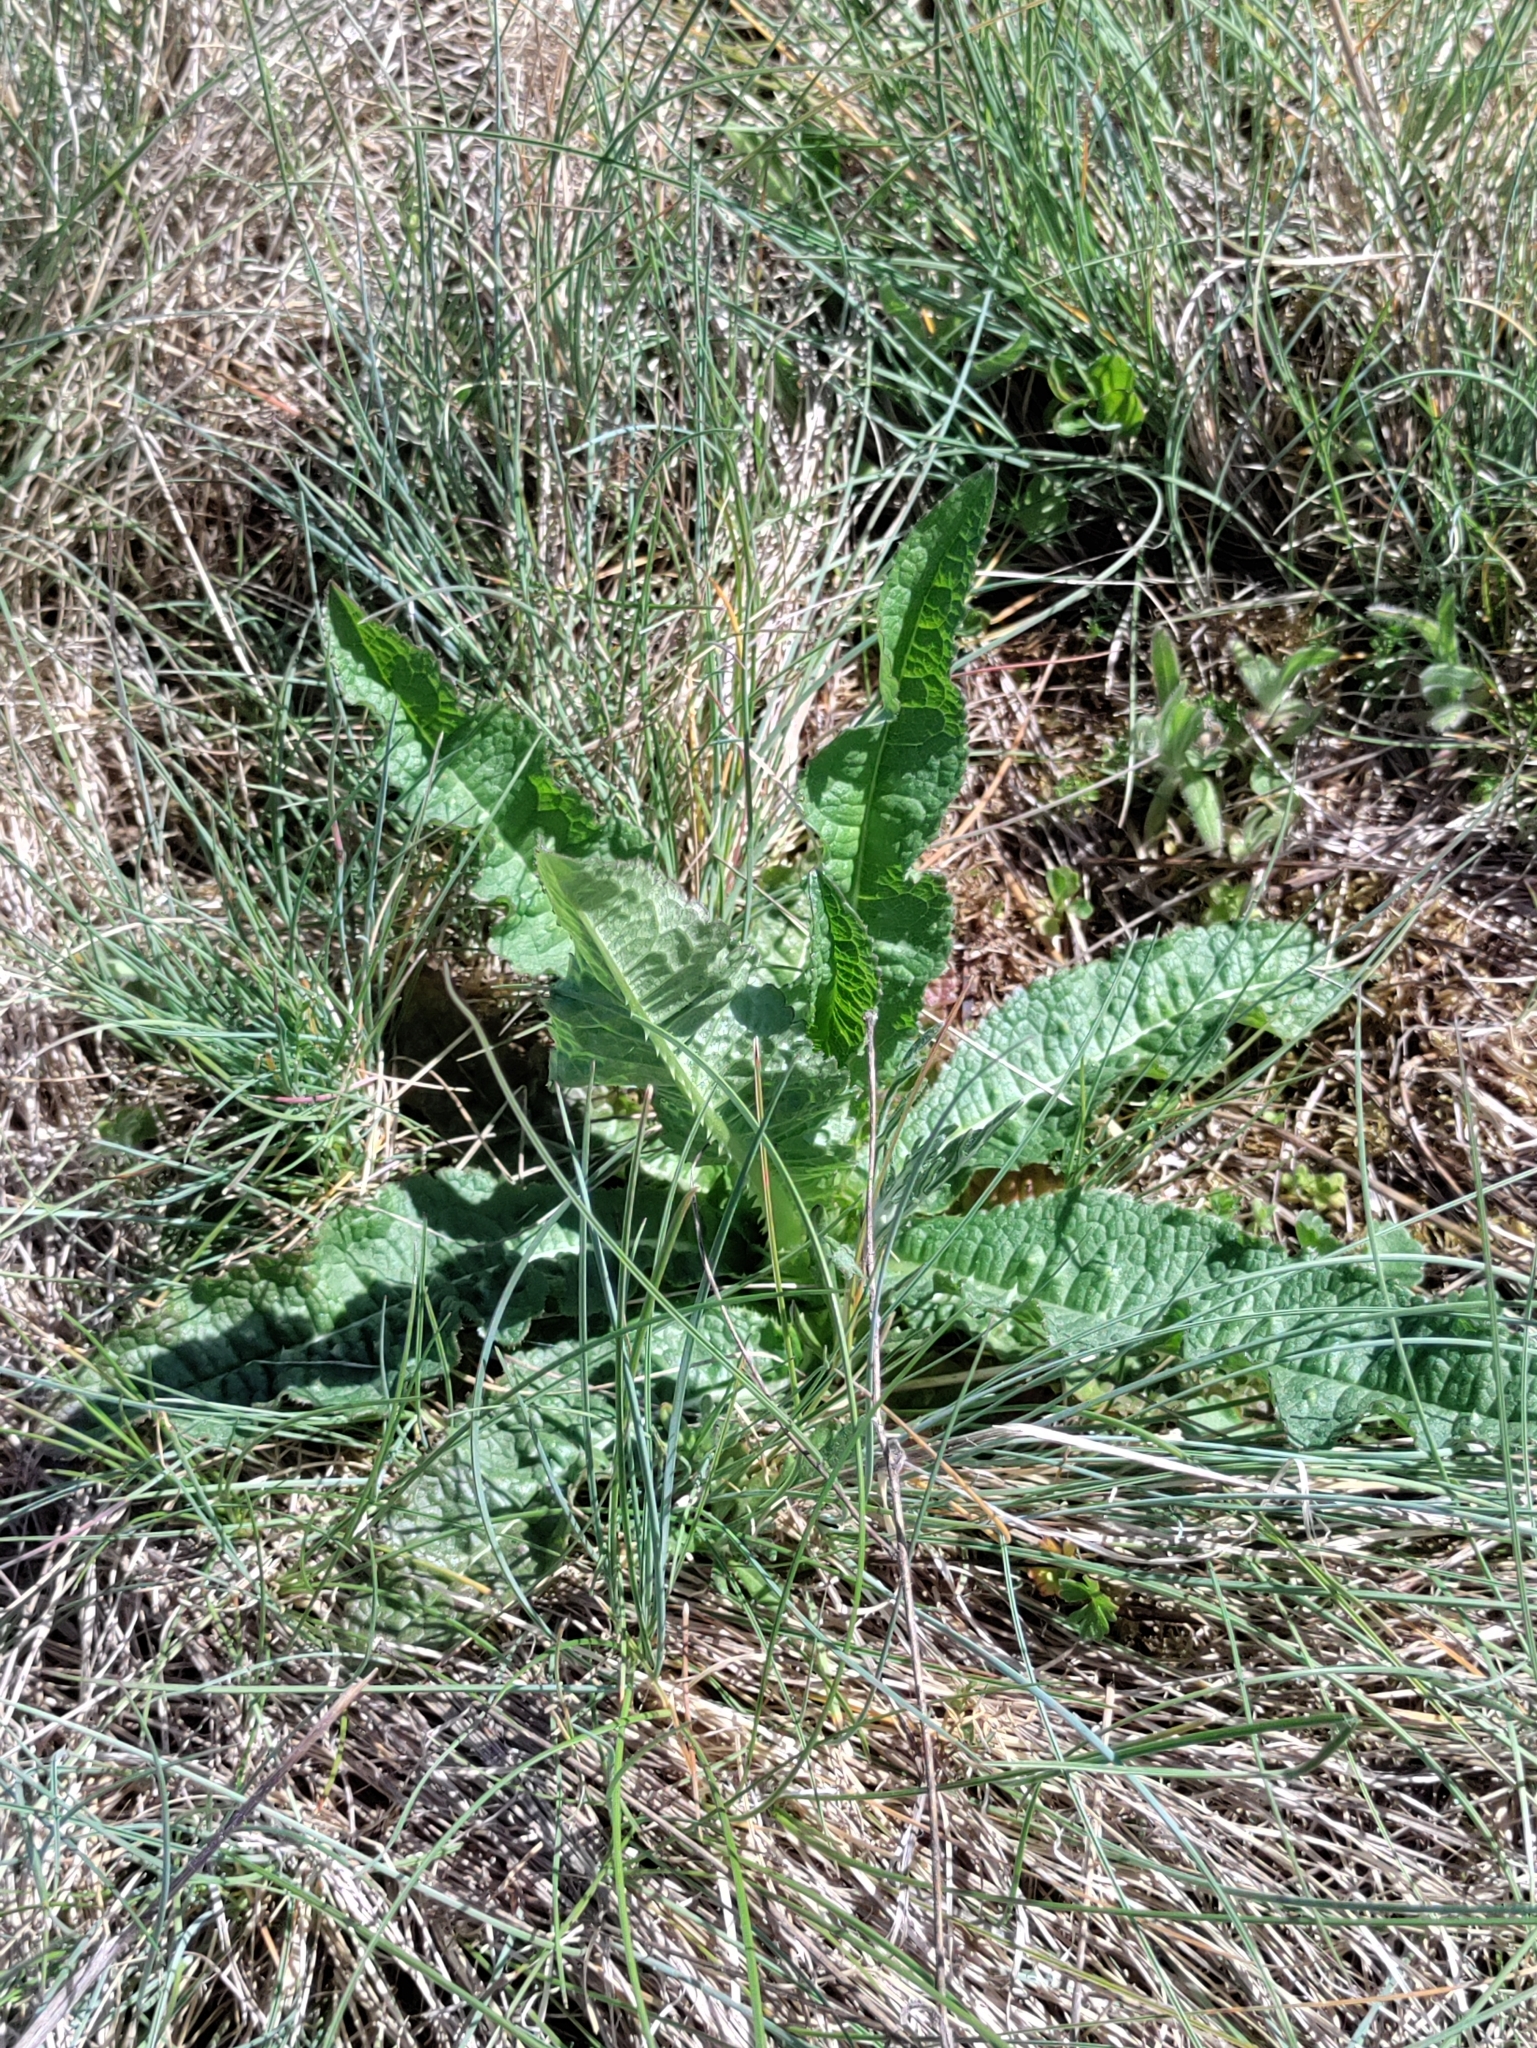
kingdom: Plantae
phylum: Tracheophyta
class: Magnoliopsida
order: Dipsacales
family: Caprifoliaceae
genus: Dipsacus
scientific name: Dipsacus fullonum
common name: Teasel
